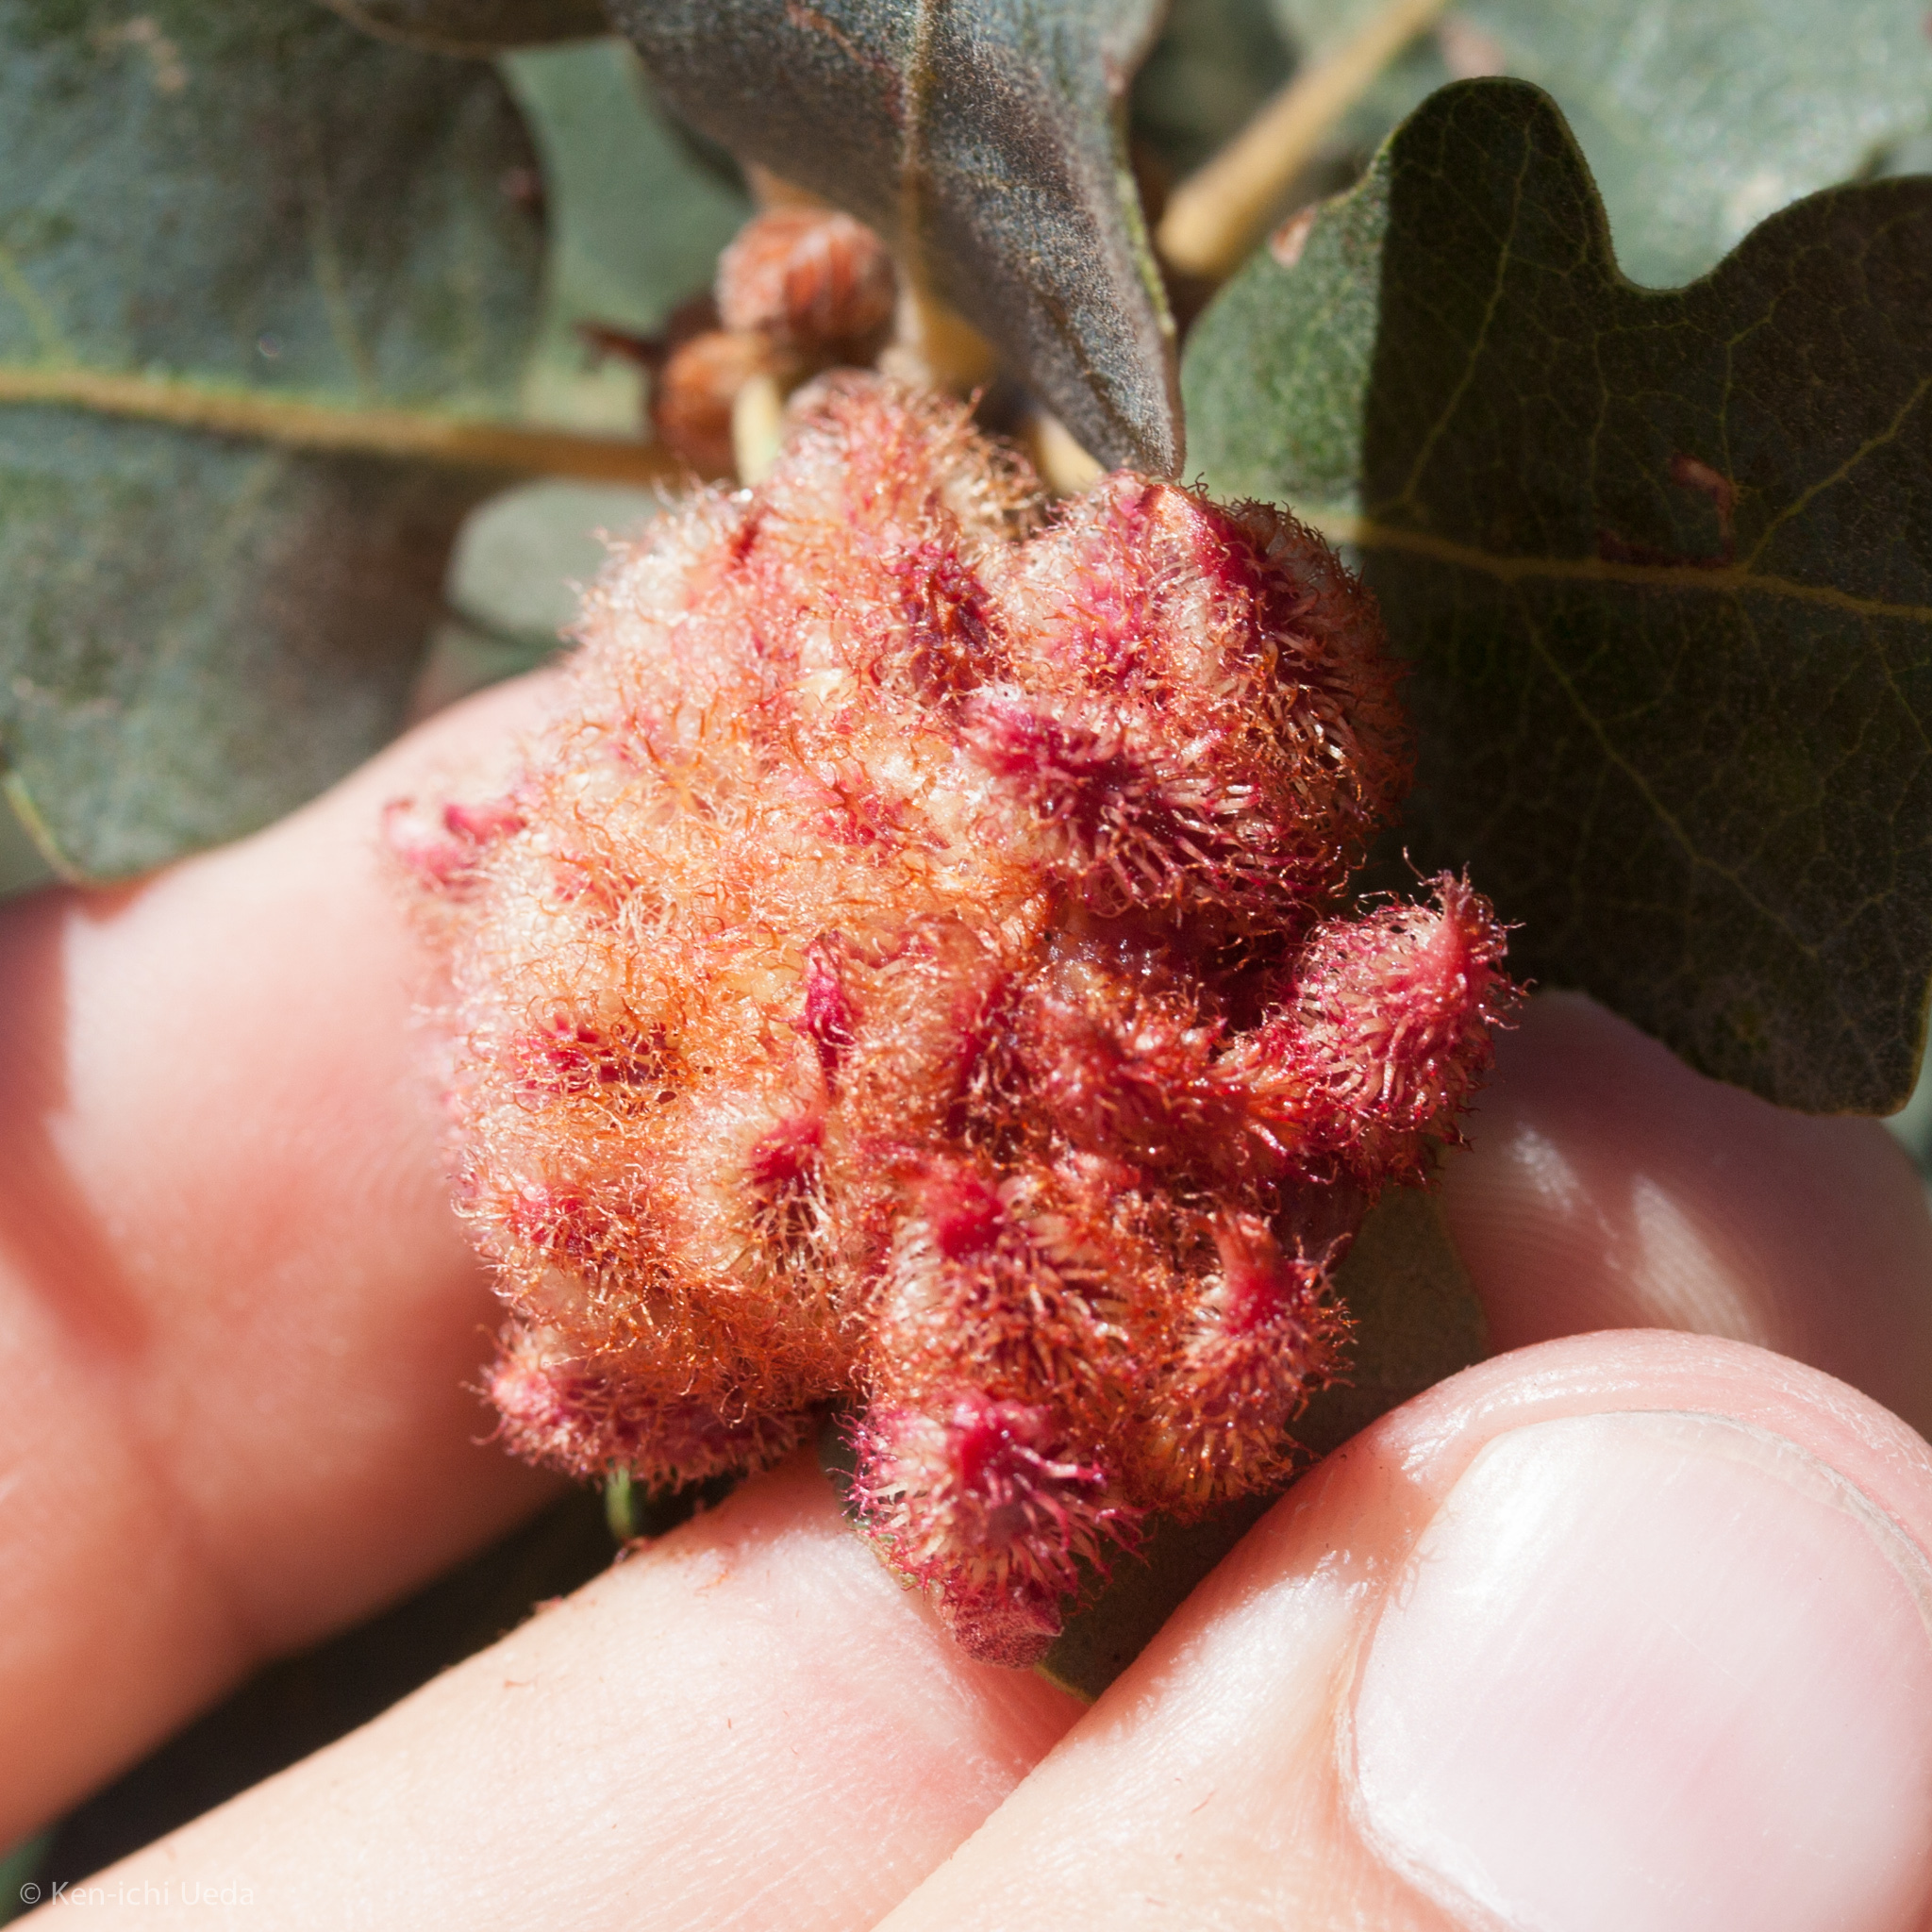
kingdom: Animalia
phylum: Arthropoda
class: Insecta
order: Hymenoptera
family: Cynipidae
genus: Andricus
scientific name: Andricus
